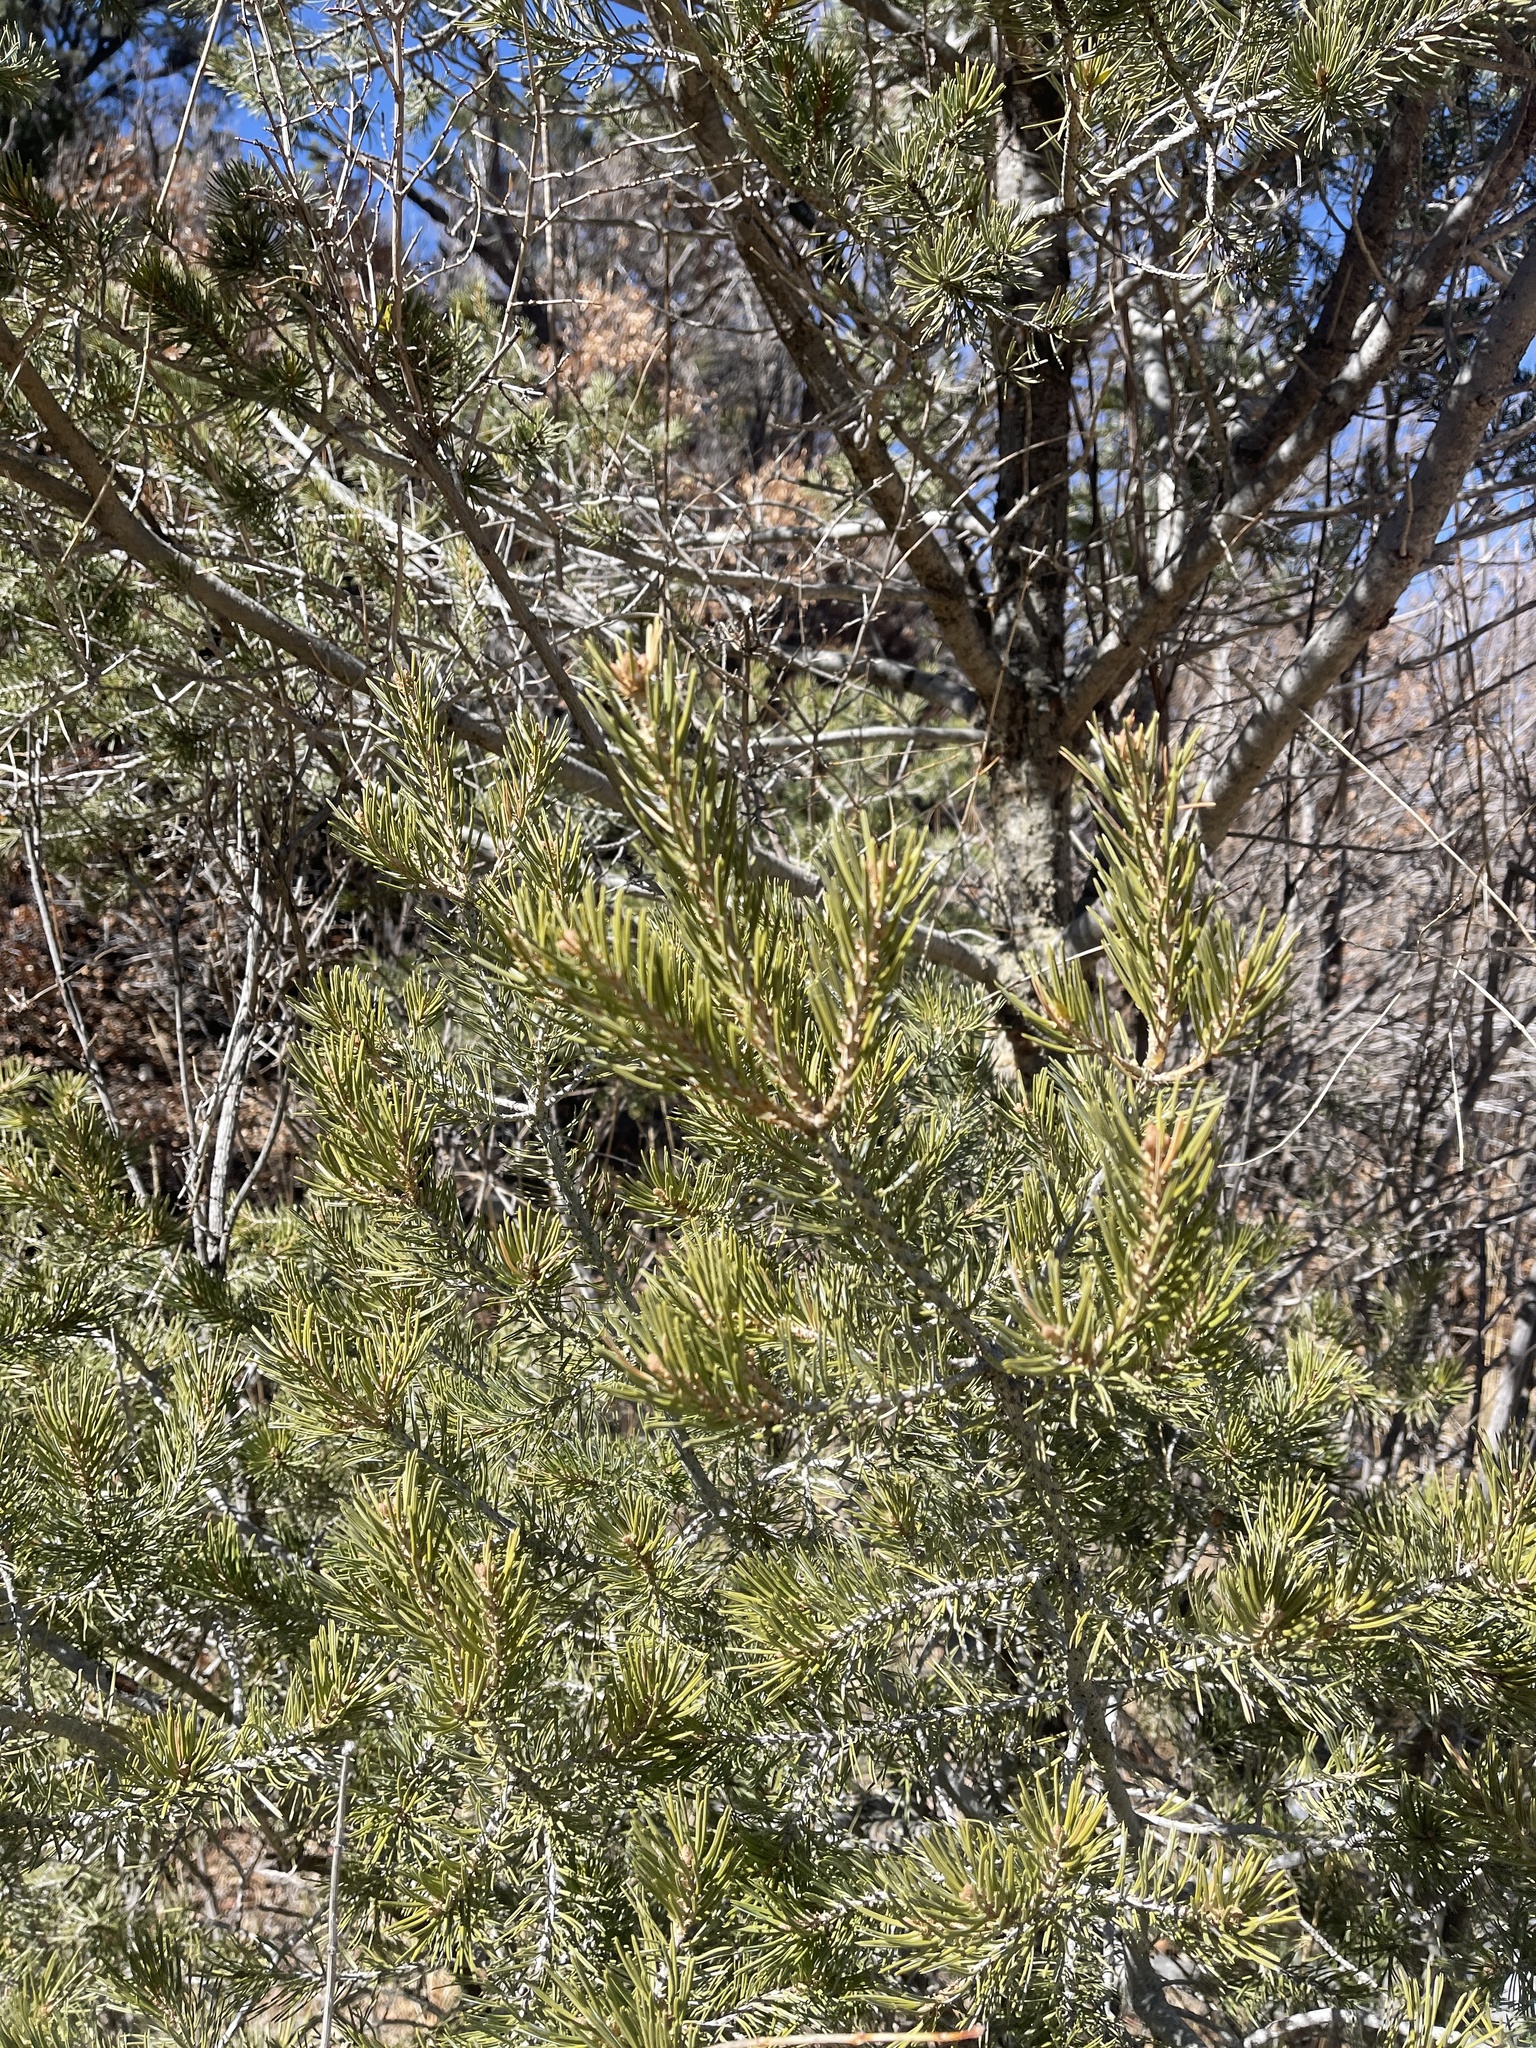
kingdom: Plantae
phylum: Tracheophyta
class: Pinopsida
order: Pinales
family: Pinaceae
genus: Pinus
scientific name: Pinus edulis
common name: Colorado pinyon
